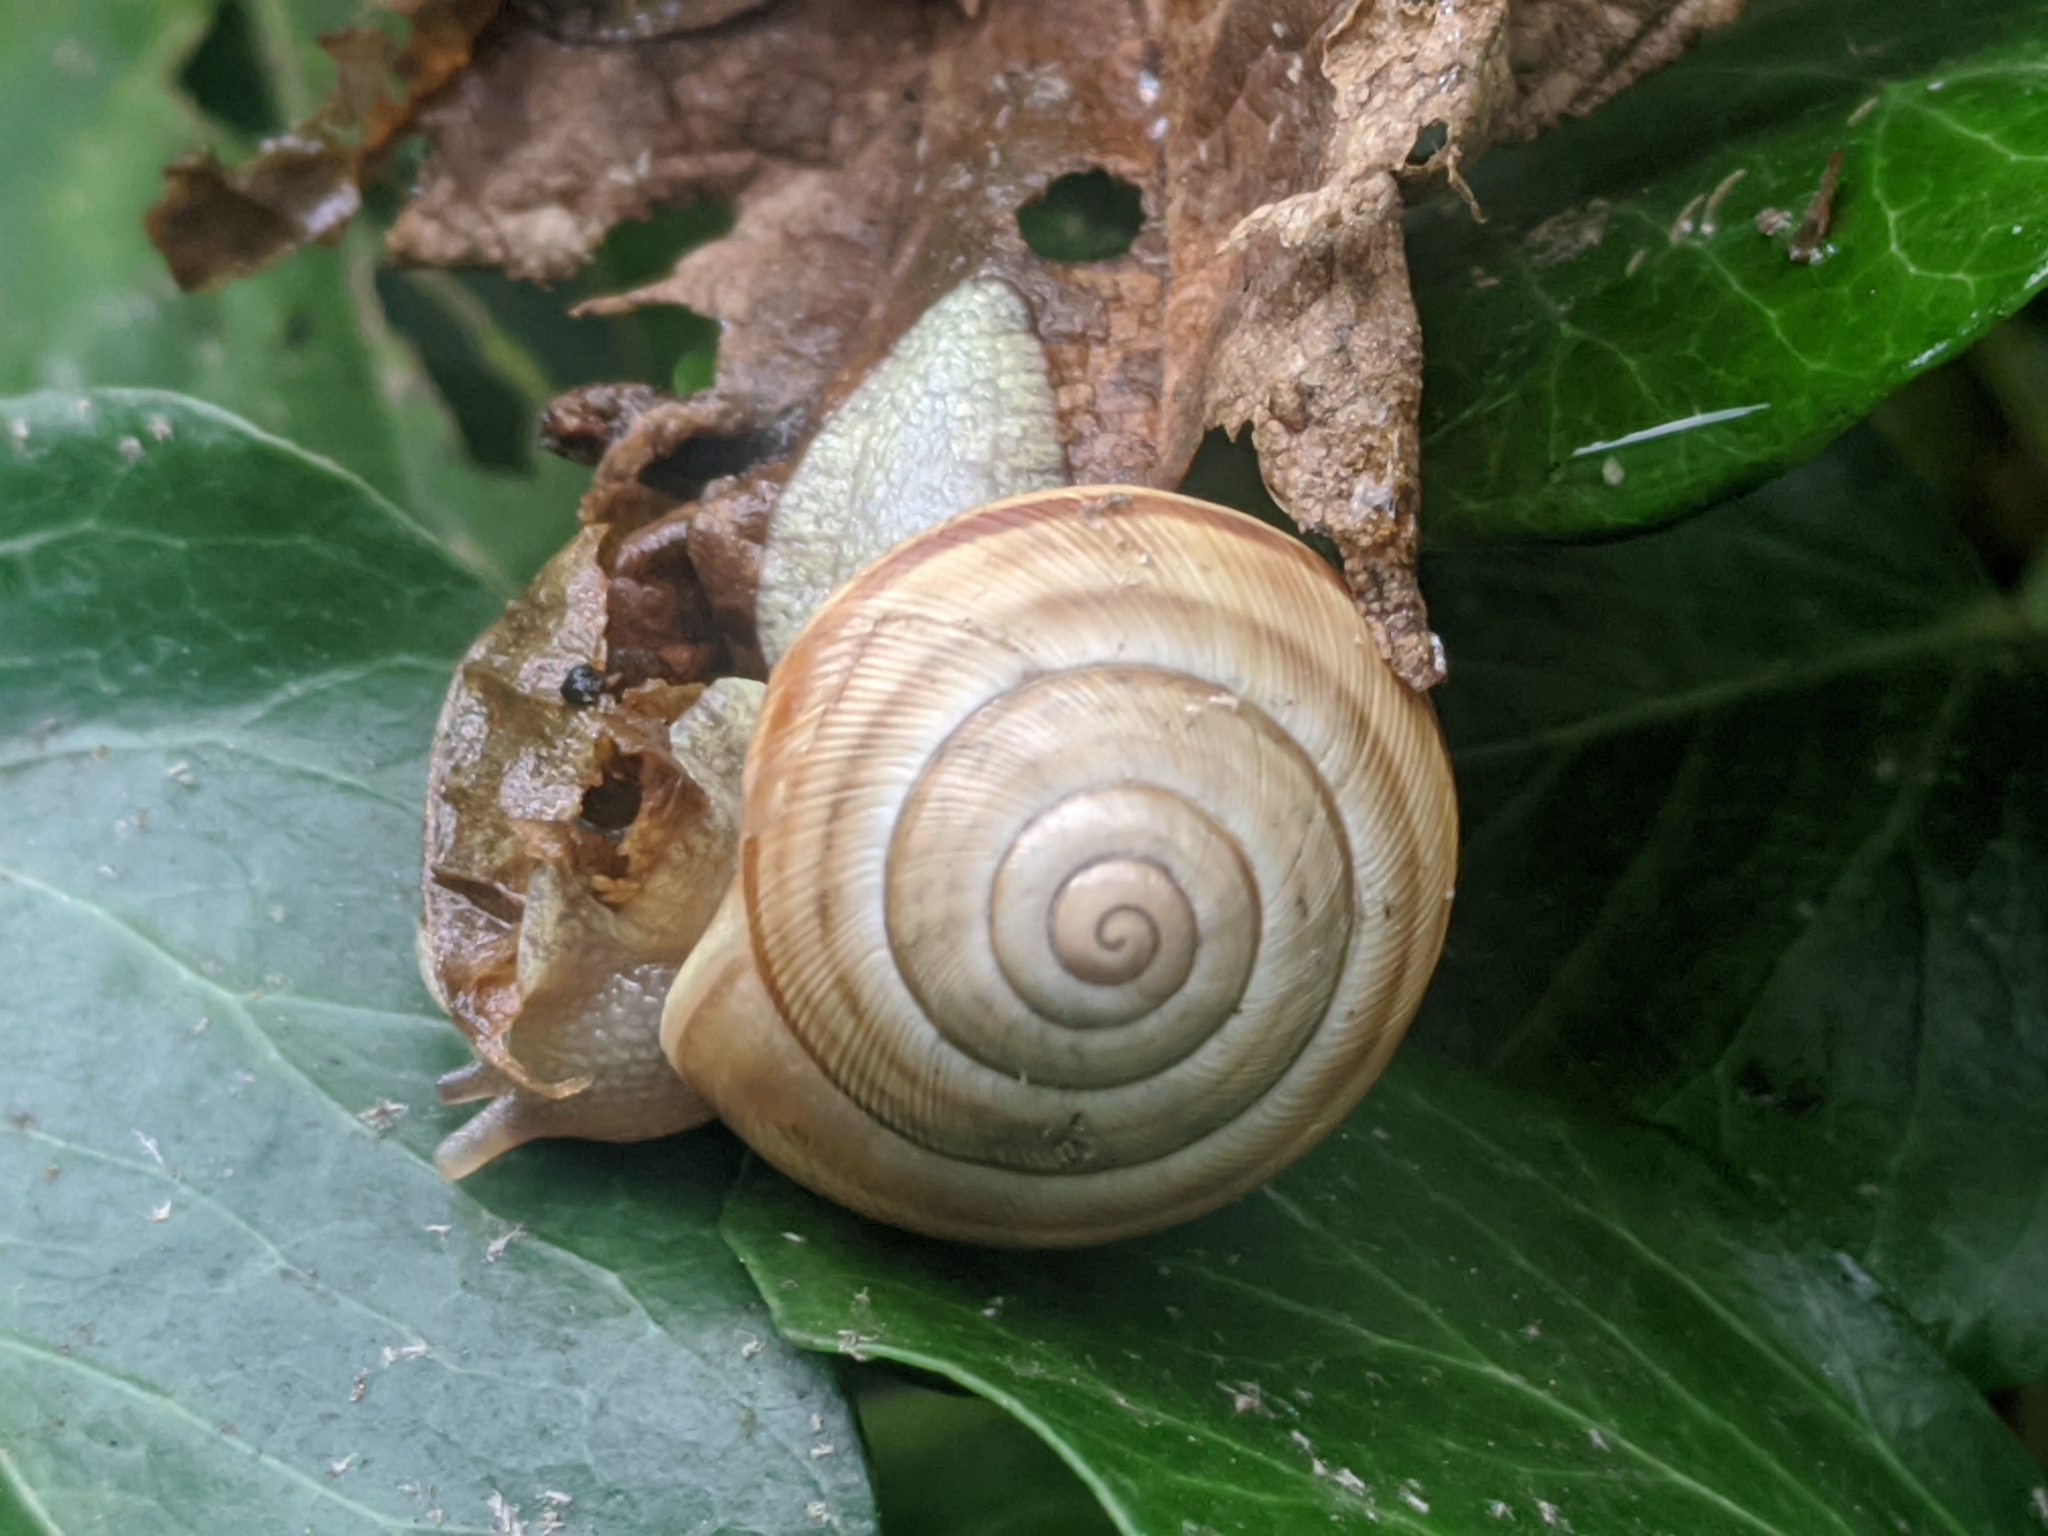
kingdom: Animalia
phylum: Mollusca
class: Gastropoda
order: Stylommatophora
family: Helicidae
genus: Caucasotachea
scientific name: Caucasotachea vindobonensis
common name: European helicid land snail
